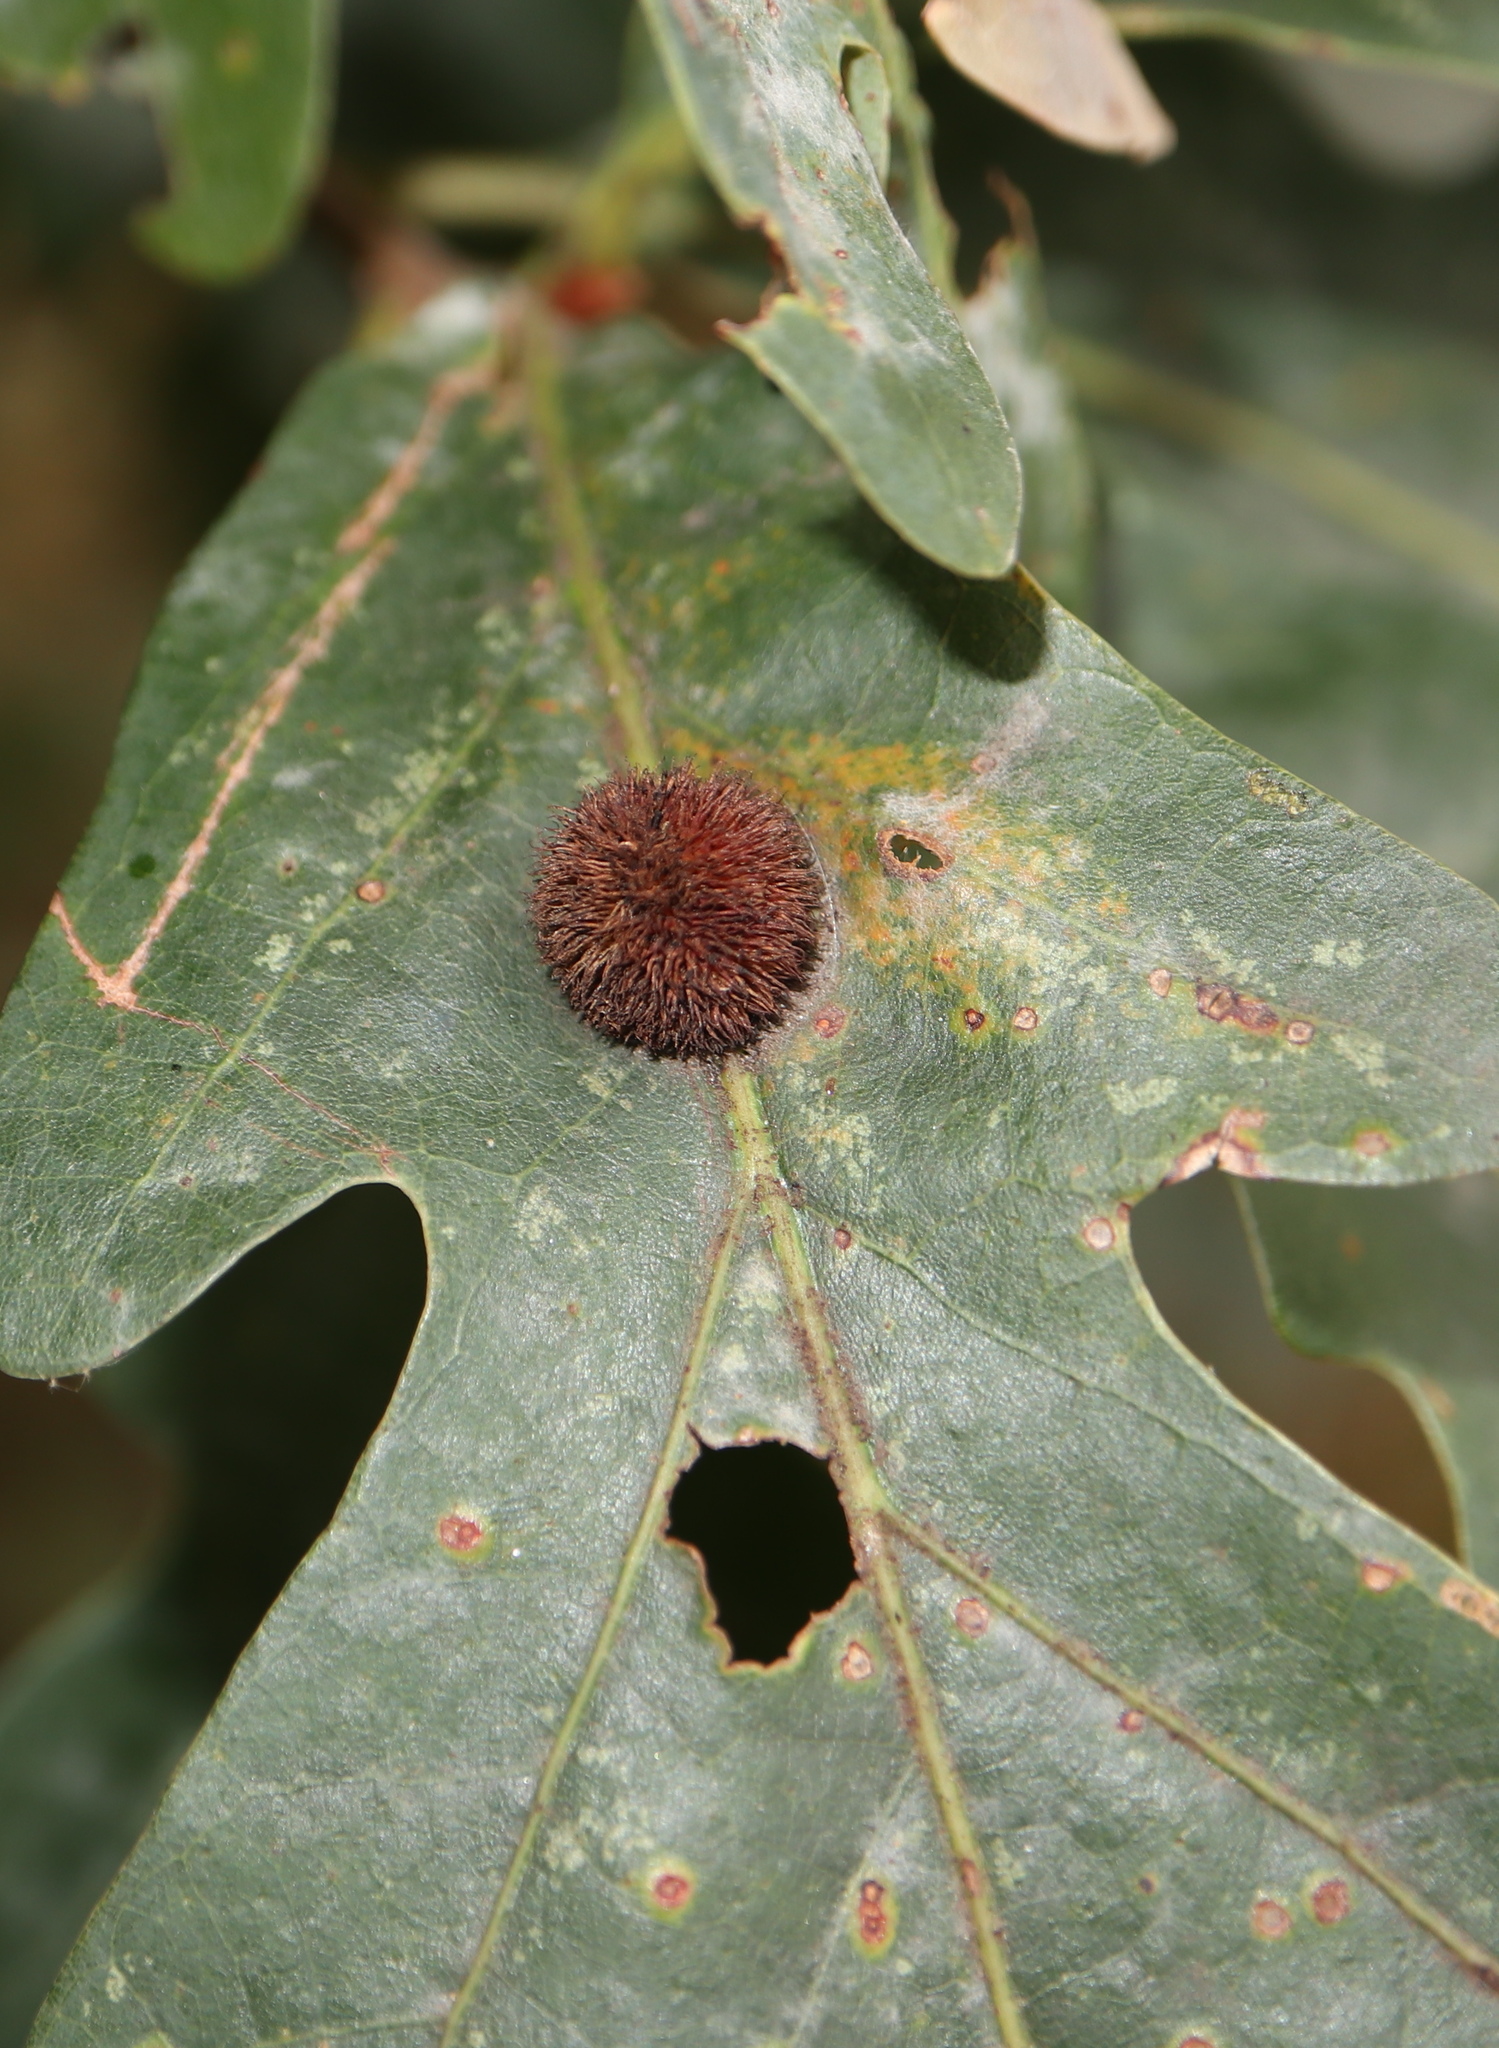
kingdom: Animalia
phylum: Arthropoda
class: Insecta
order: Hymenoptera
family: Cynipidae
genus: Acraspis
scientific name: Acraspis erinacei
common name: Hedgehog gall wasp
